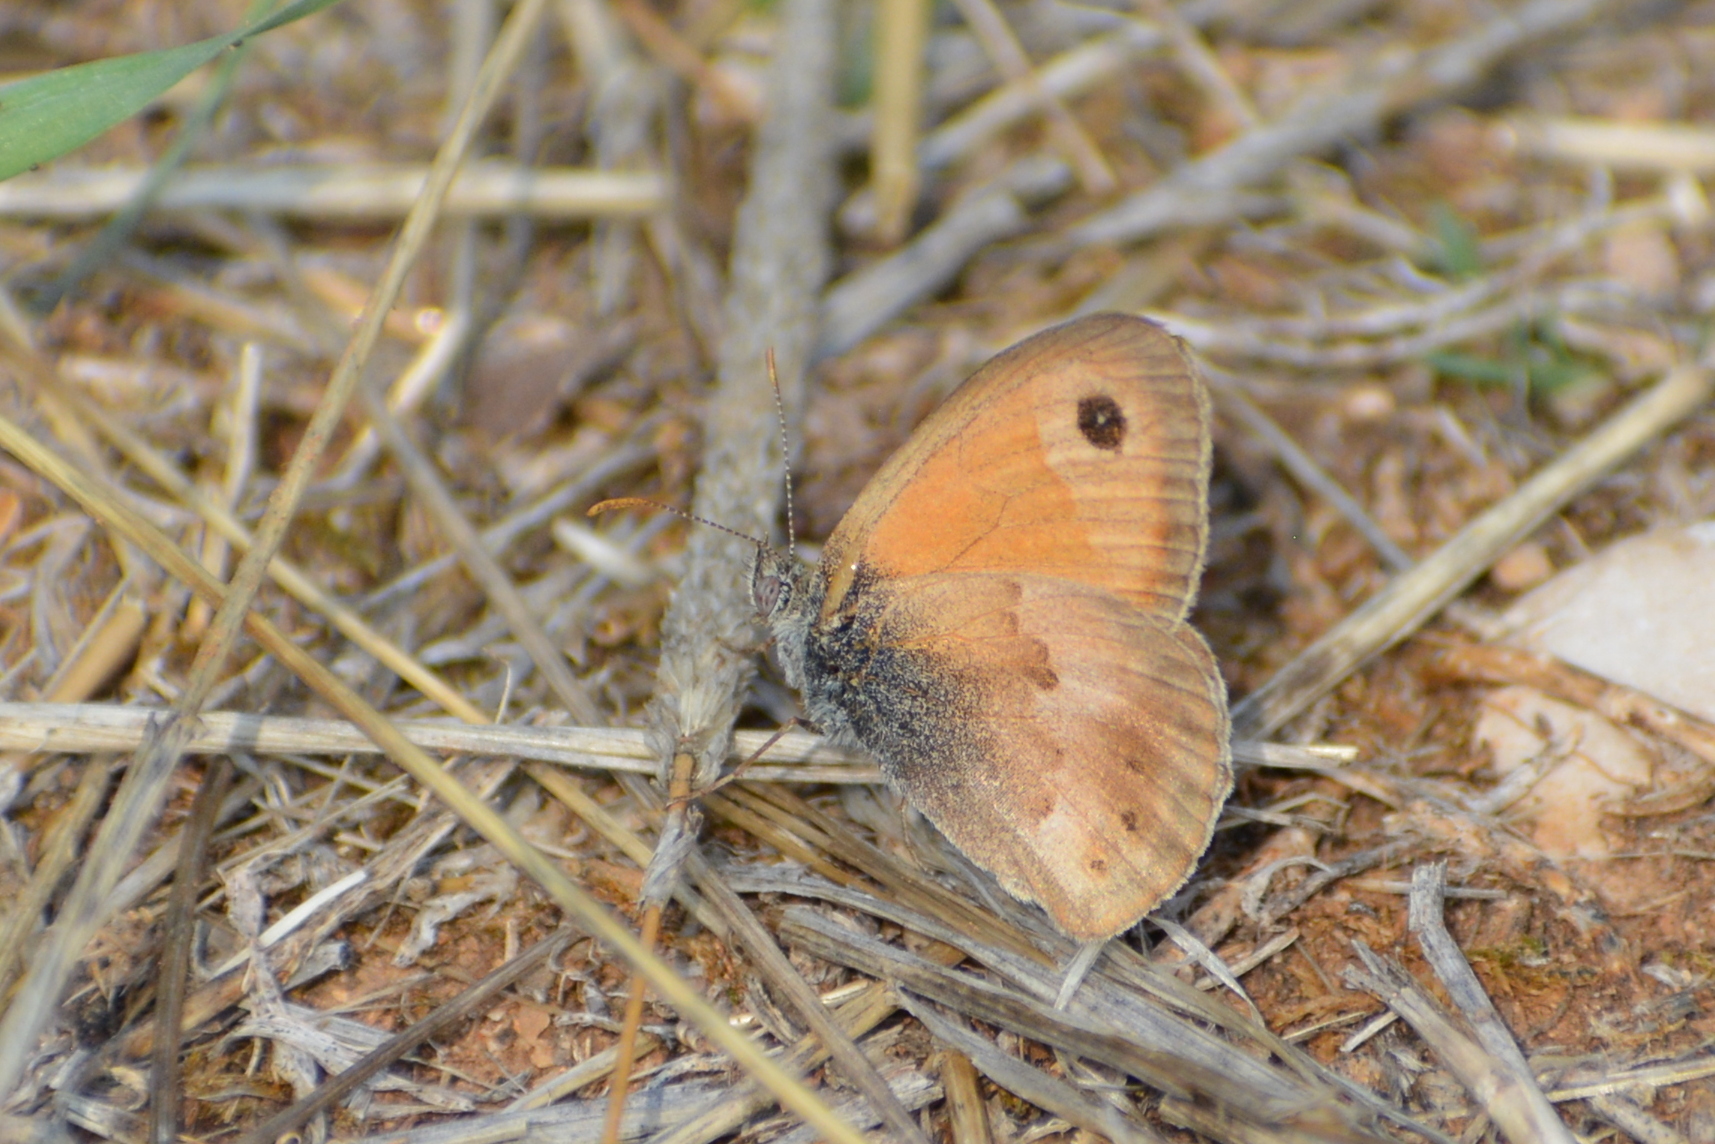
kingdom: Animalia
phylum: Arthropoda
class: Insecta
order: Lepidoptera
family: Nymphalidae
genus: Coenonympha
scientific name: Coenonympha pamphilus
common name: Small heath
